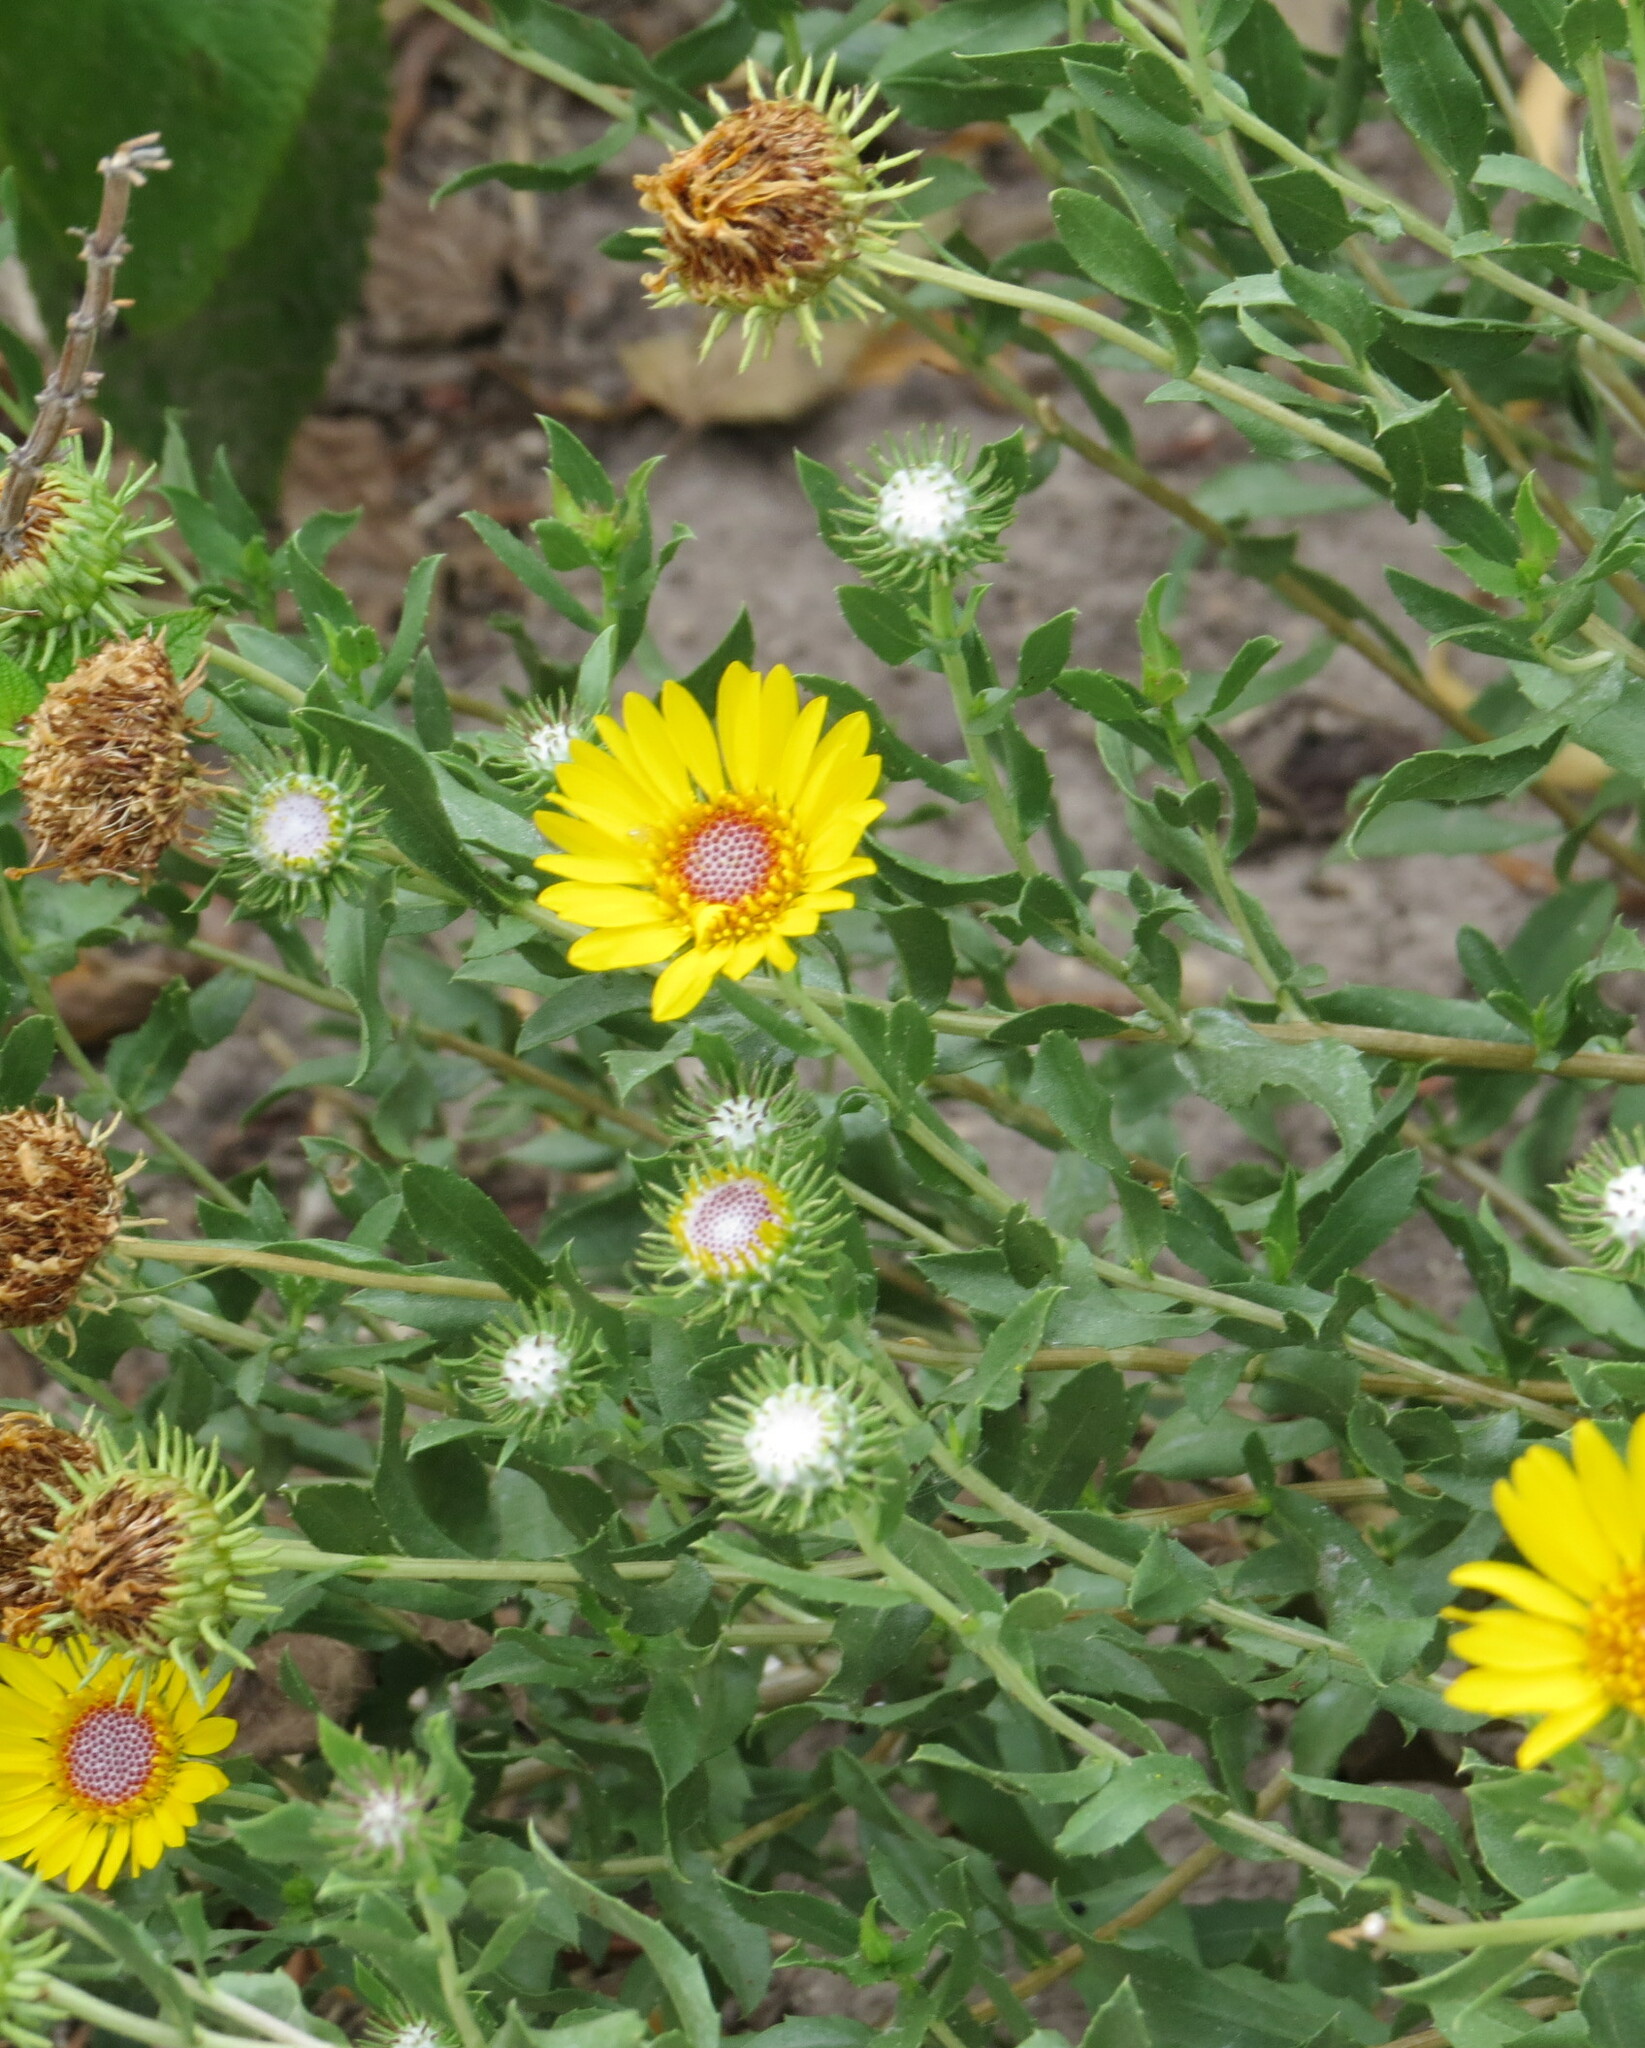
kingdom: Plantae
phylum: Tracheophyta
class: Magnoliopsida
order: Asterales
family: Asteraceae
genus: Grindelia
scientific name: Grindelia pulchella
